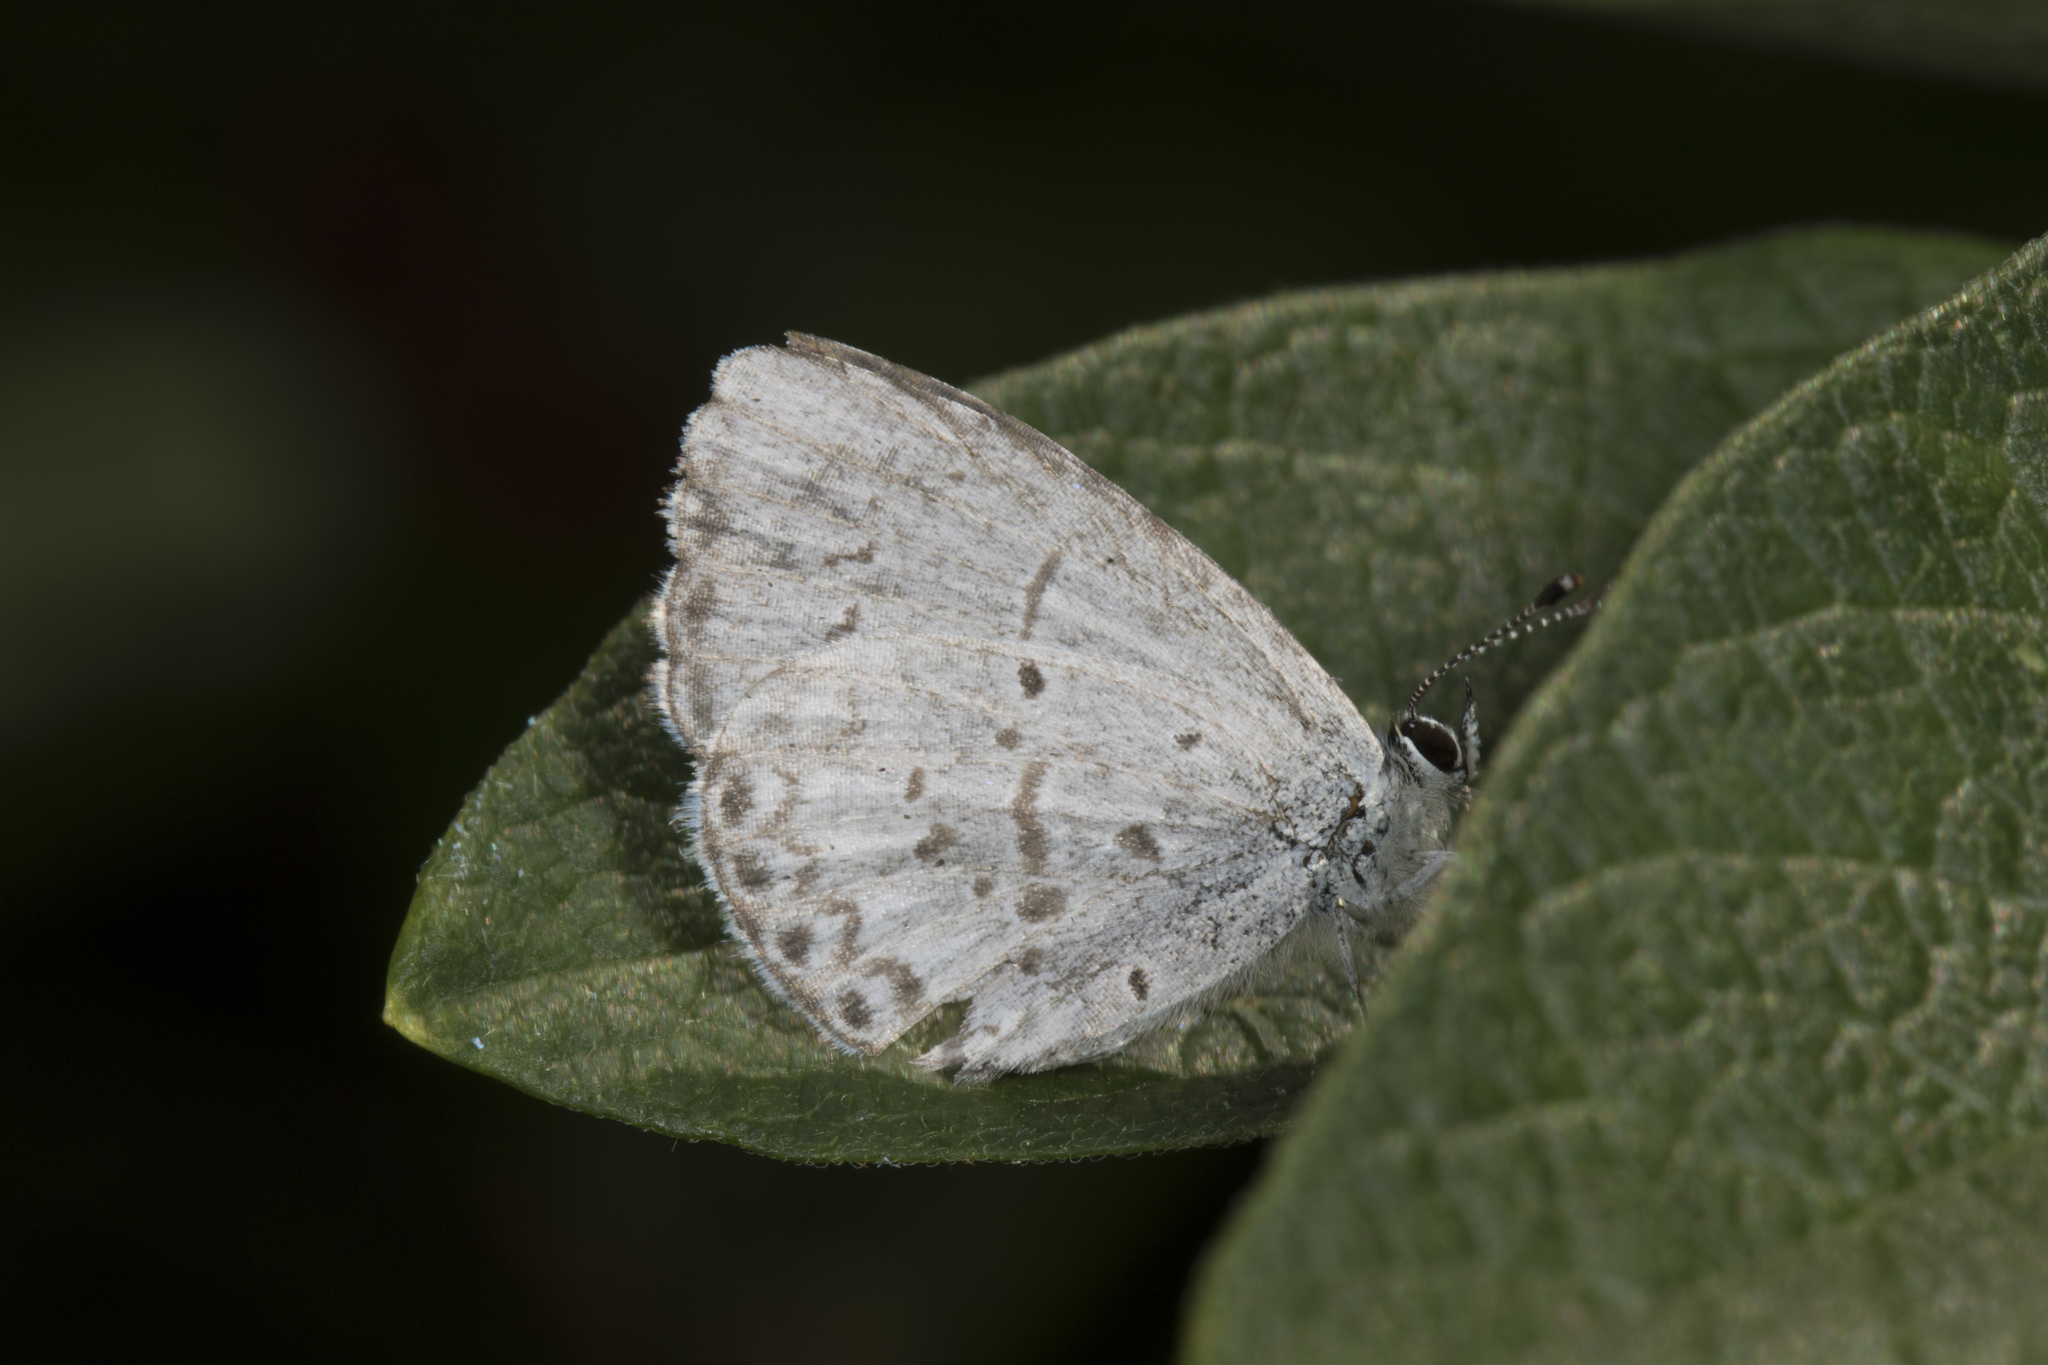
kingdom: Animalia
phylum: Arthropoda
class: Insecta
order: Lepidoptera
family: Lycaenidae
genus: Cyaniris
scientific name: Cyaniris neglecta
